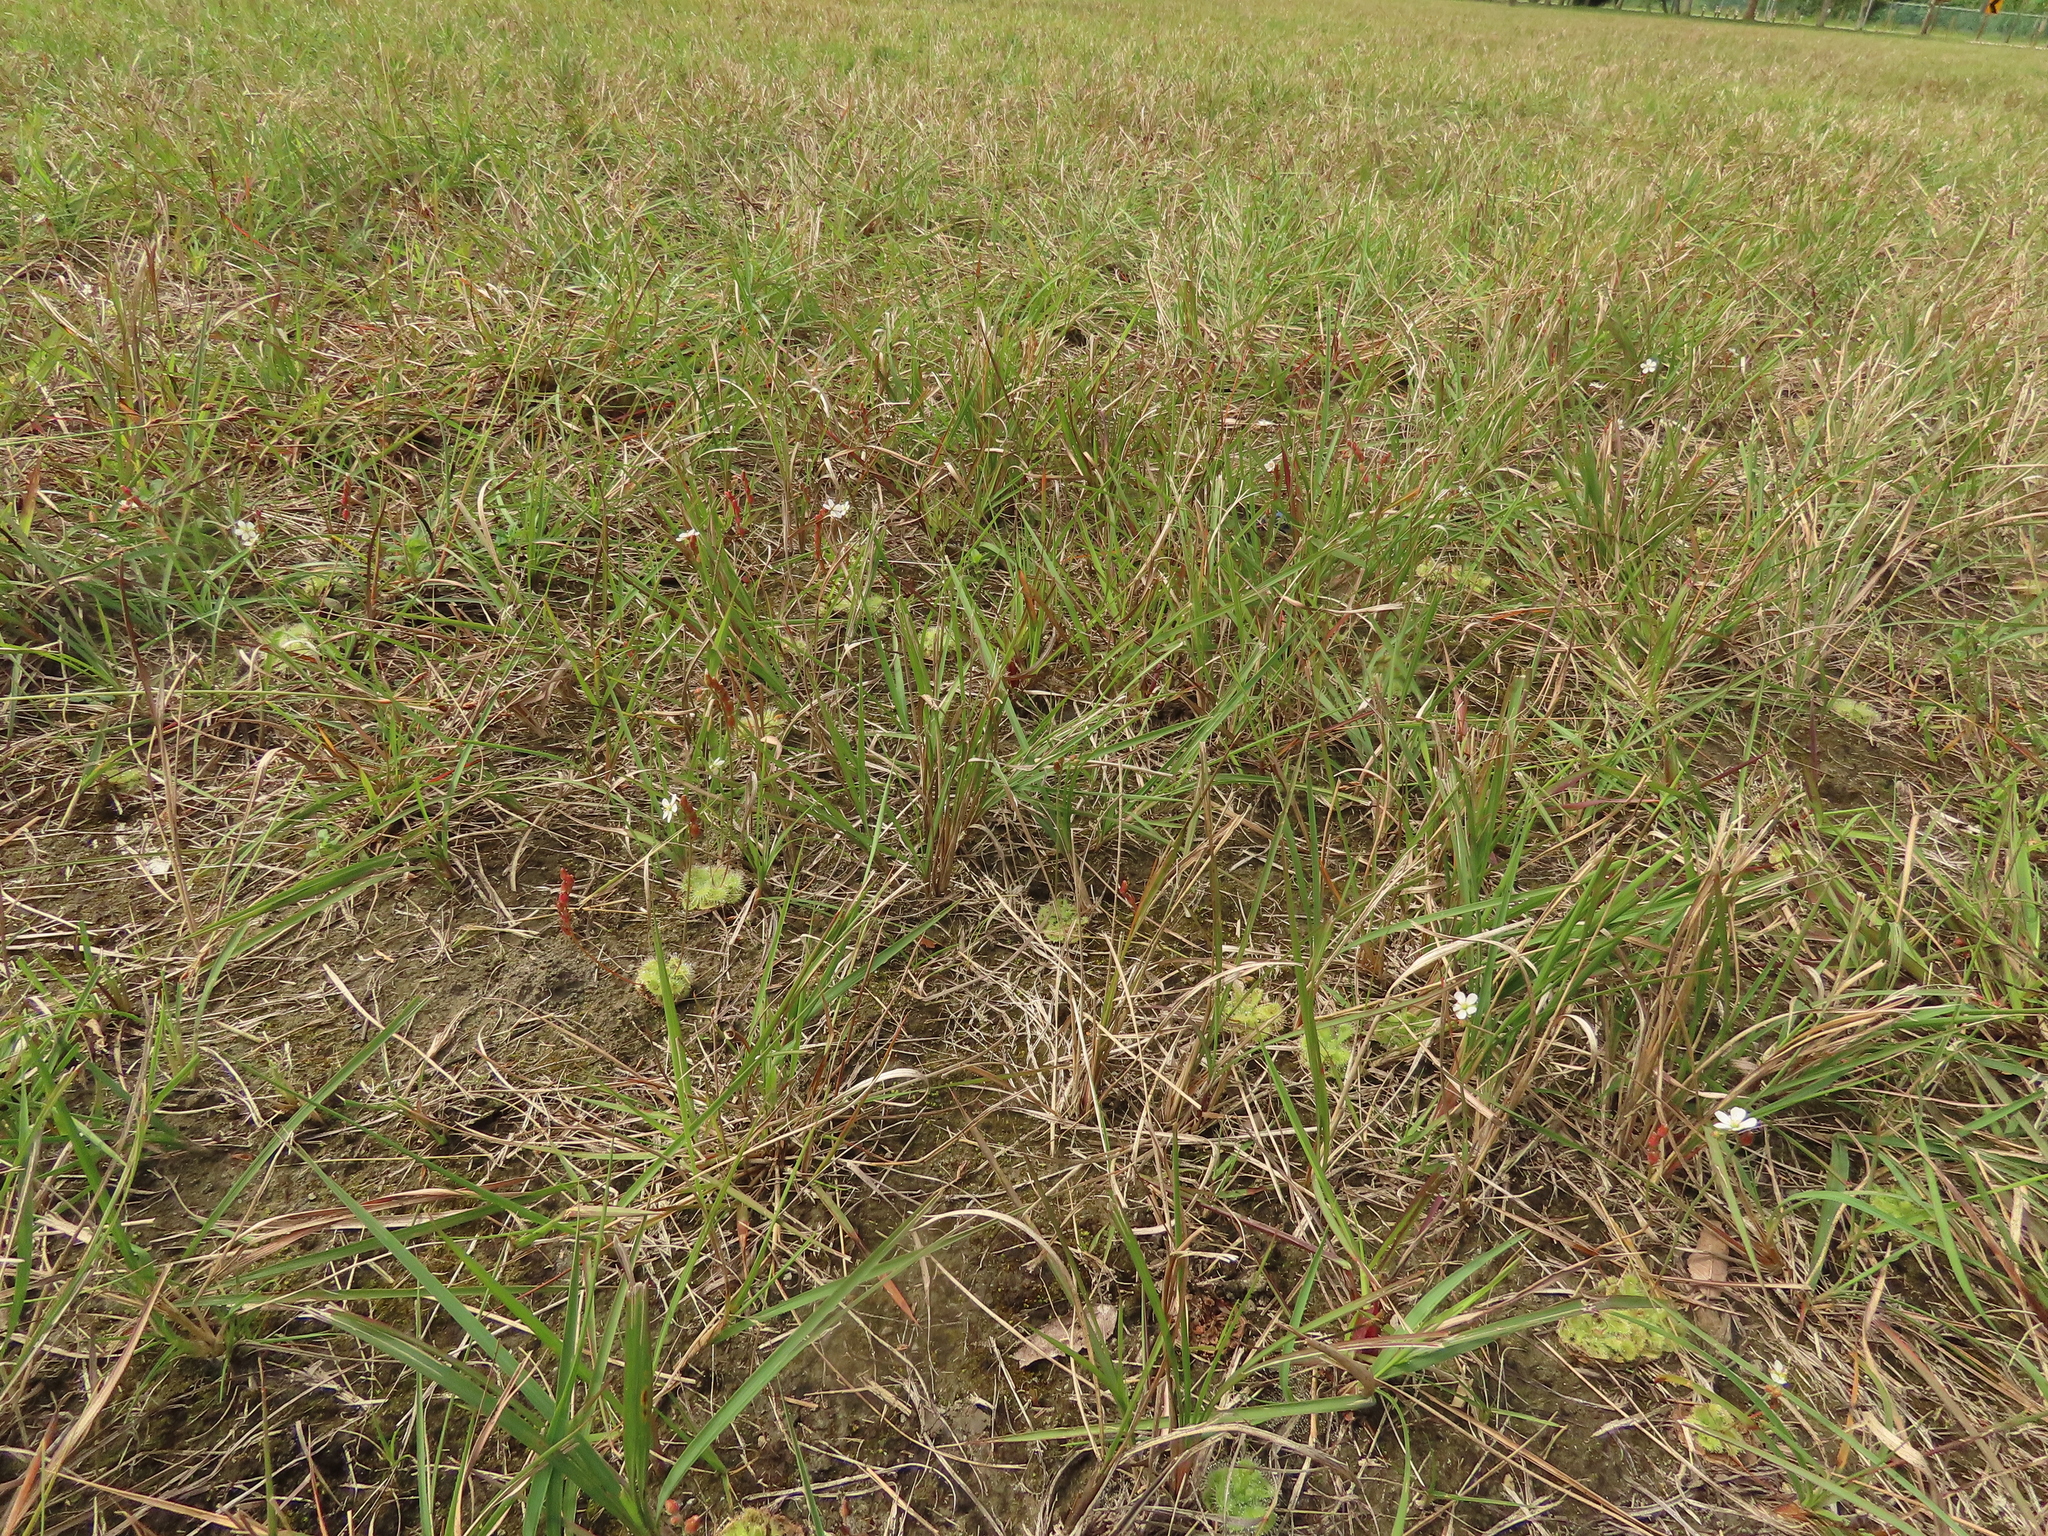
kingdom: Plantae
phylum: Tracheophyta
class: Magnoliopsida
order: Caryophyllales
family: Droseraceae
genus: Drosera
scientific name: Drosera spatulata
